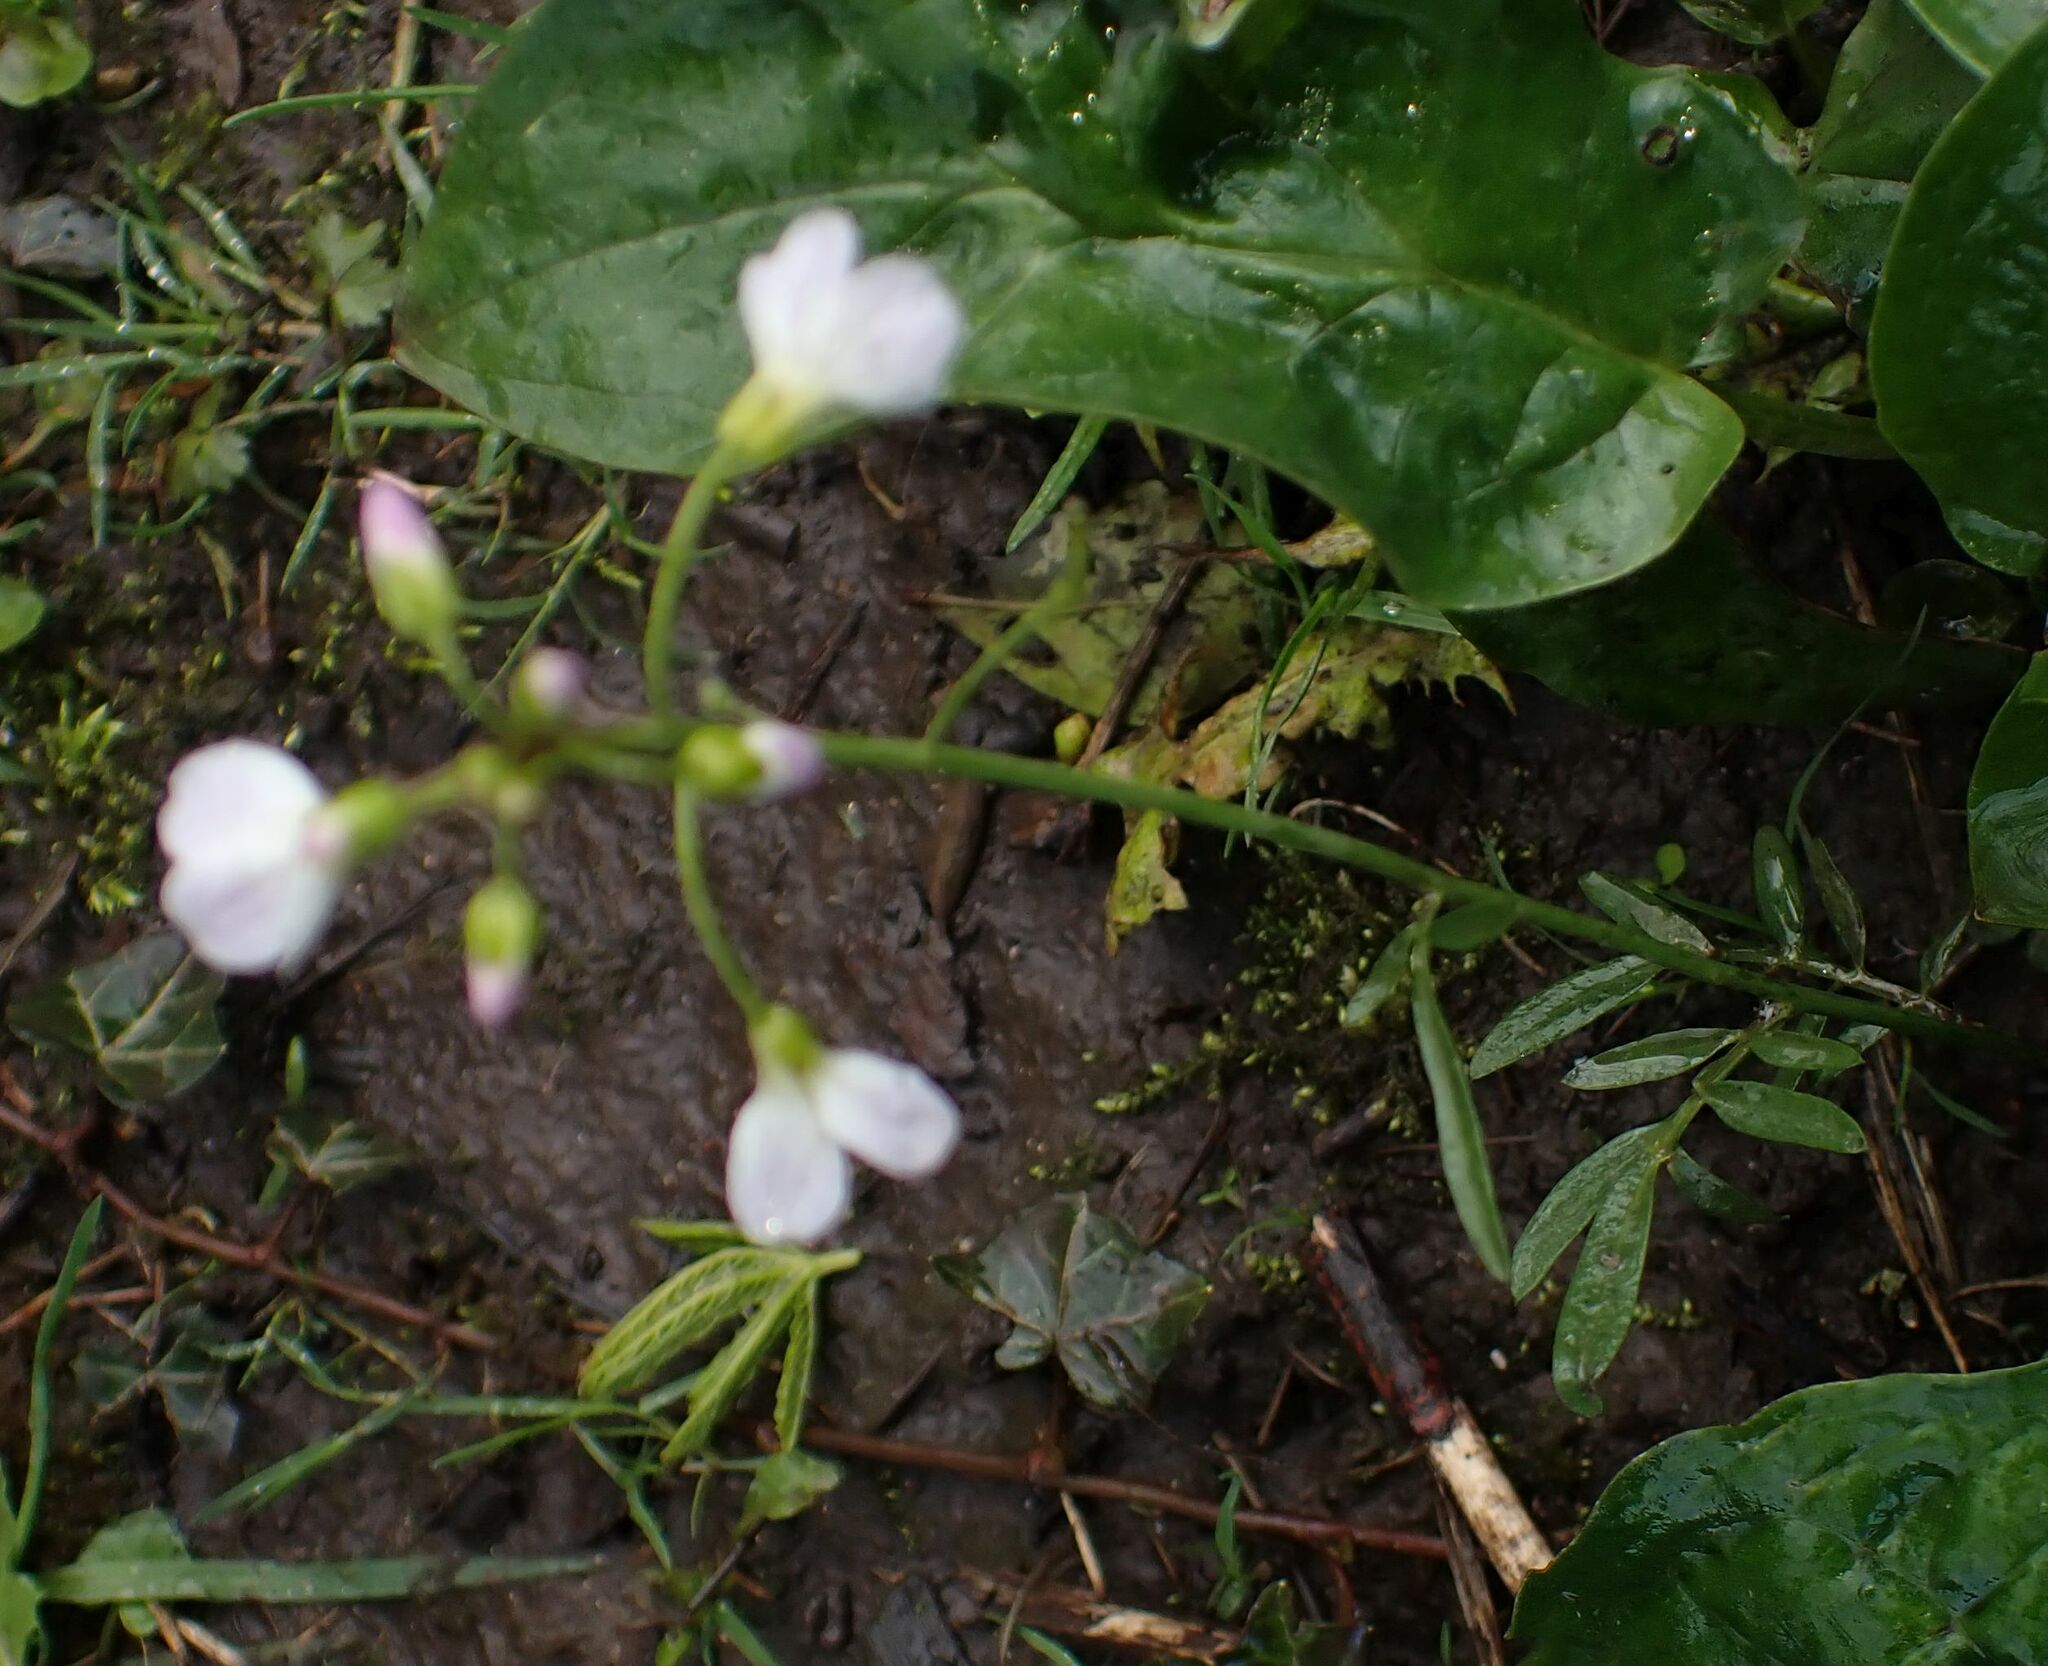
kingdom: Plantae
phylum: Tracheophyta
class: Magnoliopsida
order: Brassicales
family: Brassicaceae
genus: Cardamine
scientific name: Cardamine pratensis
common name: Cuckoo flower
